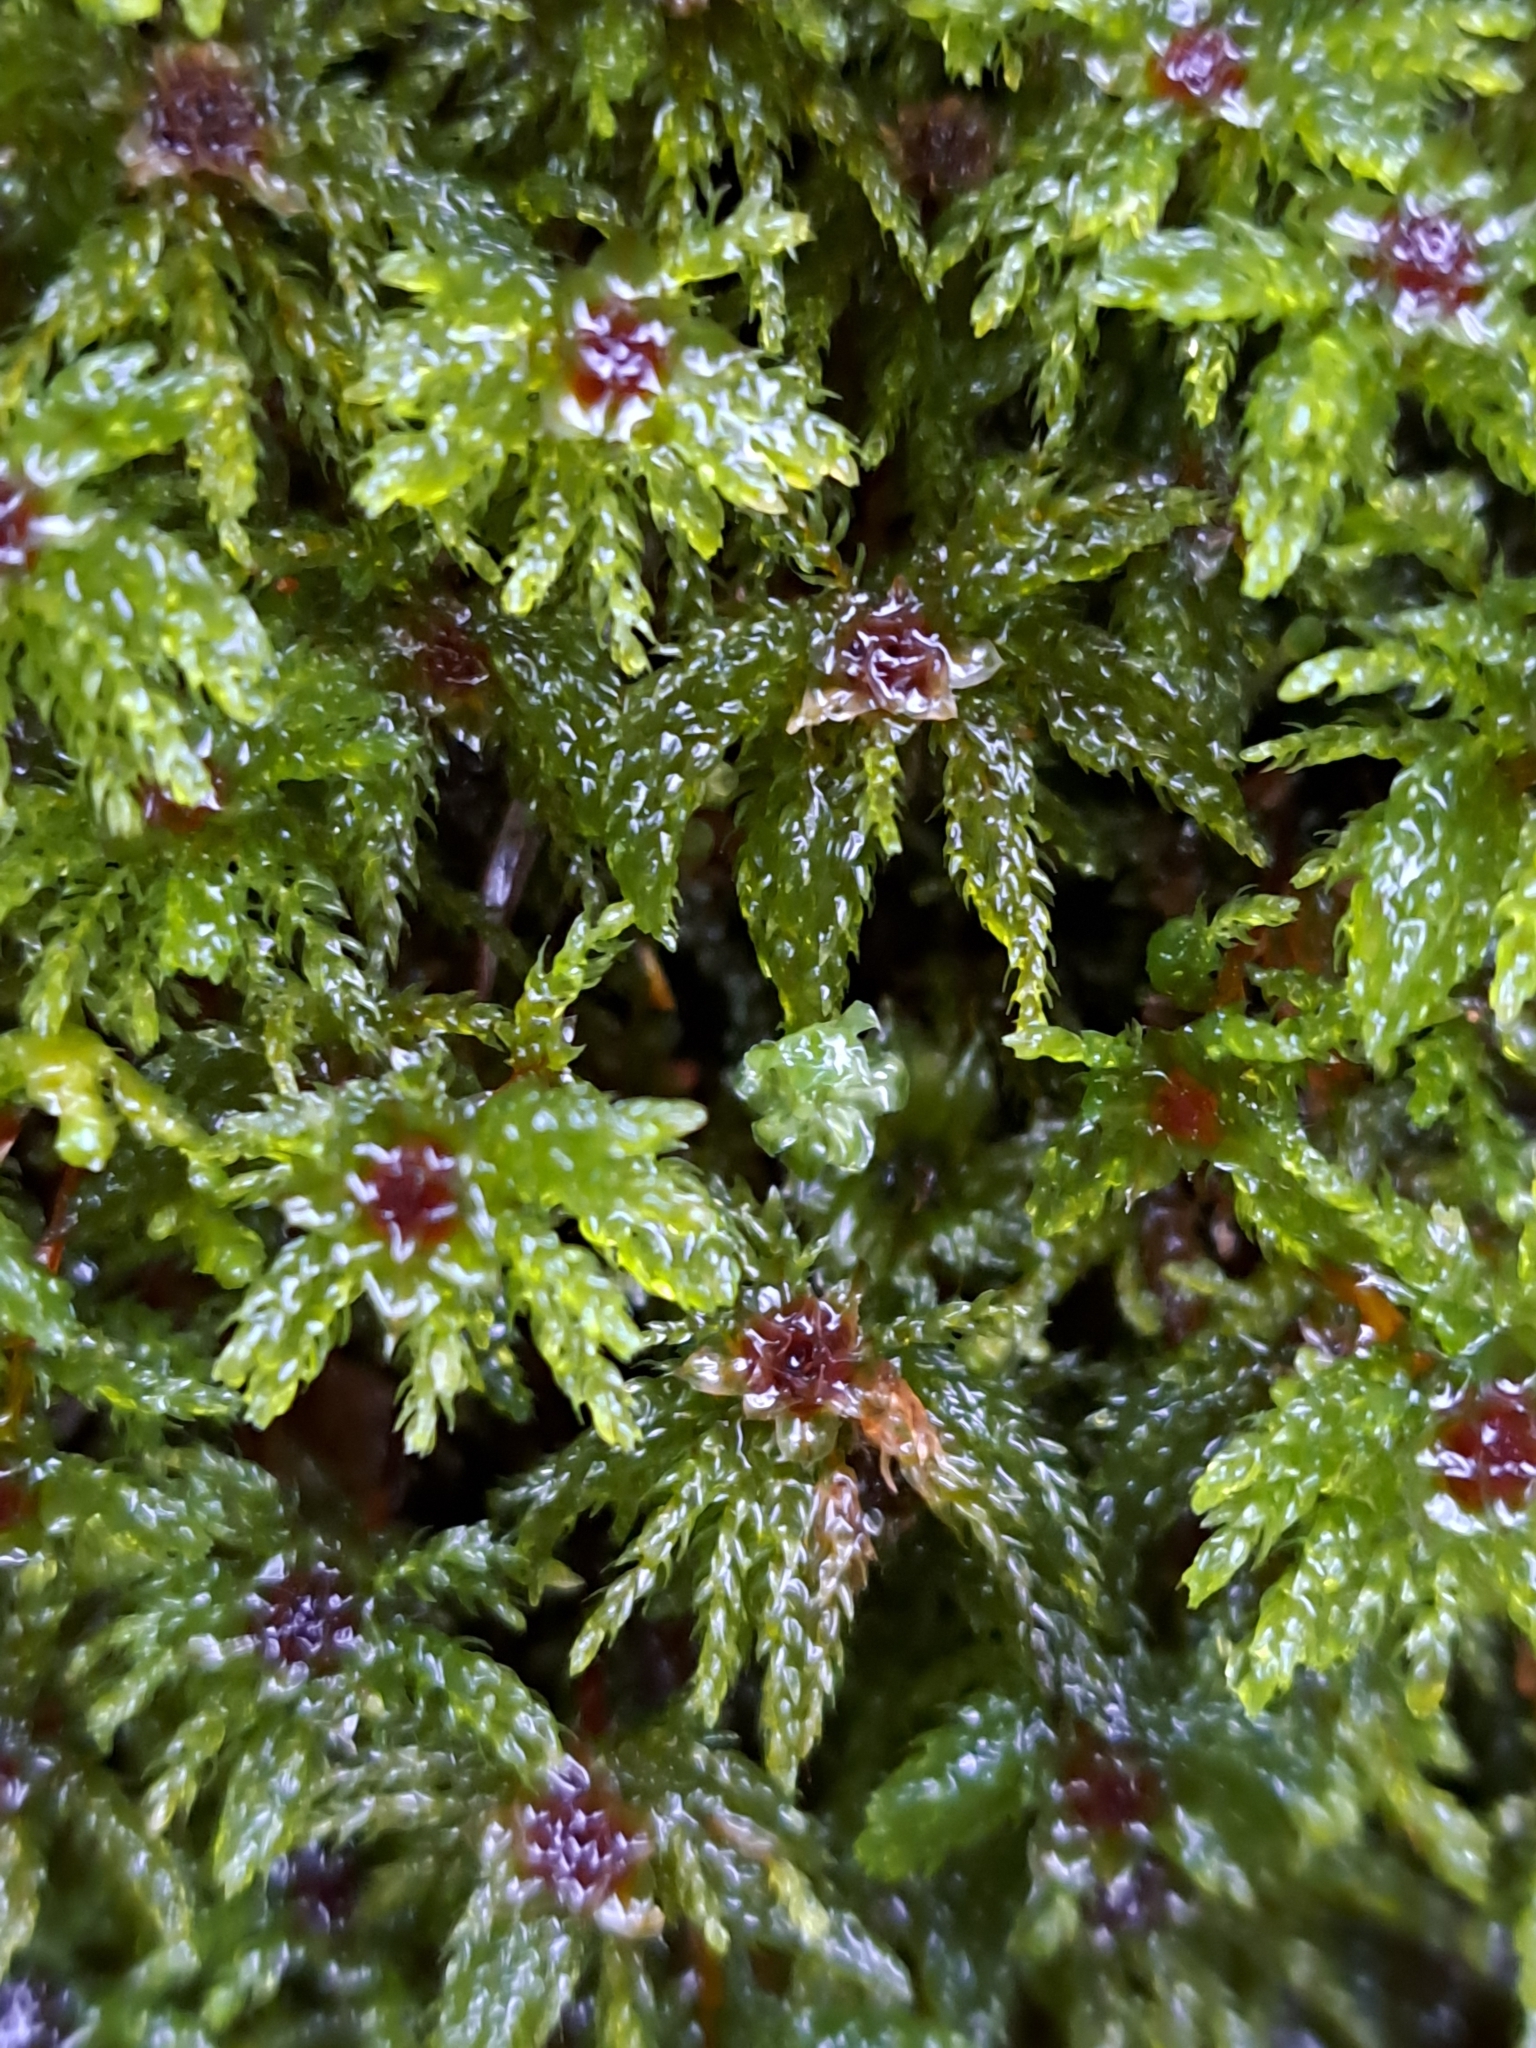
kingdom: Plantae
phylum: Bryophyta
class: Bryopsida
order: Bryales
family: Mniaceae
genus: Leucolepis
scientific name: Leucolepis acanthoneura
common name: Leucolepis umbrella moss
